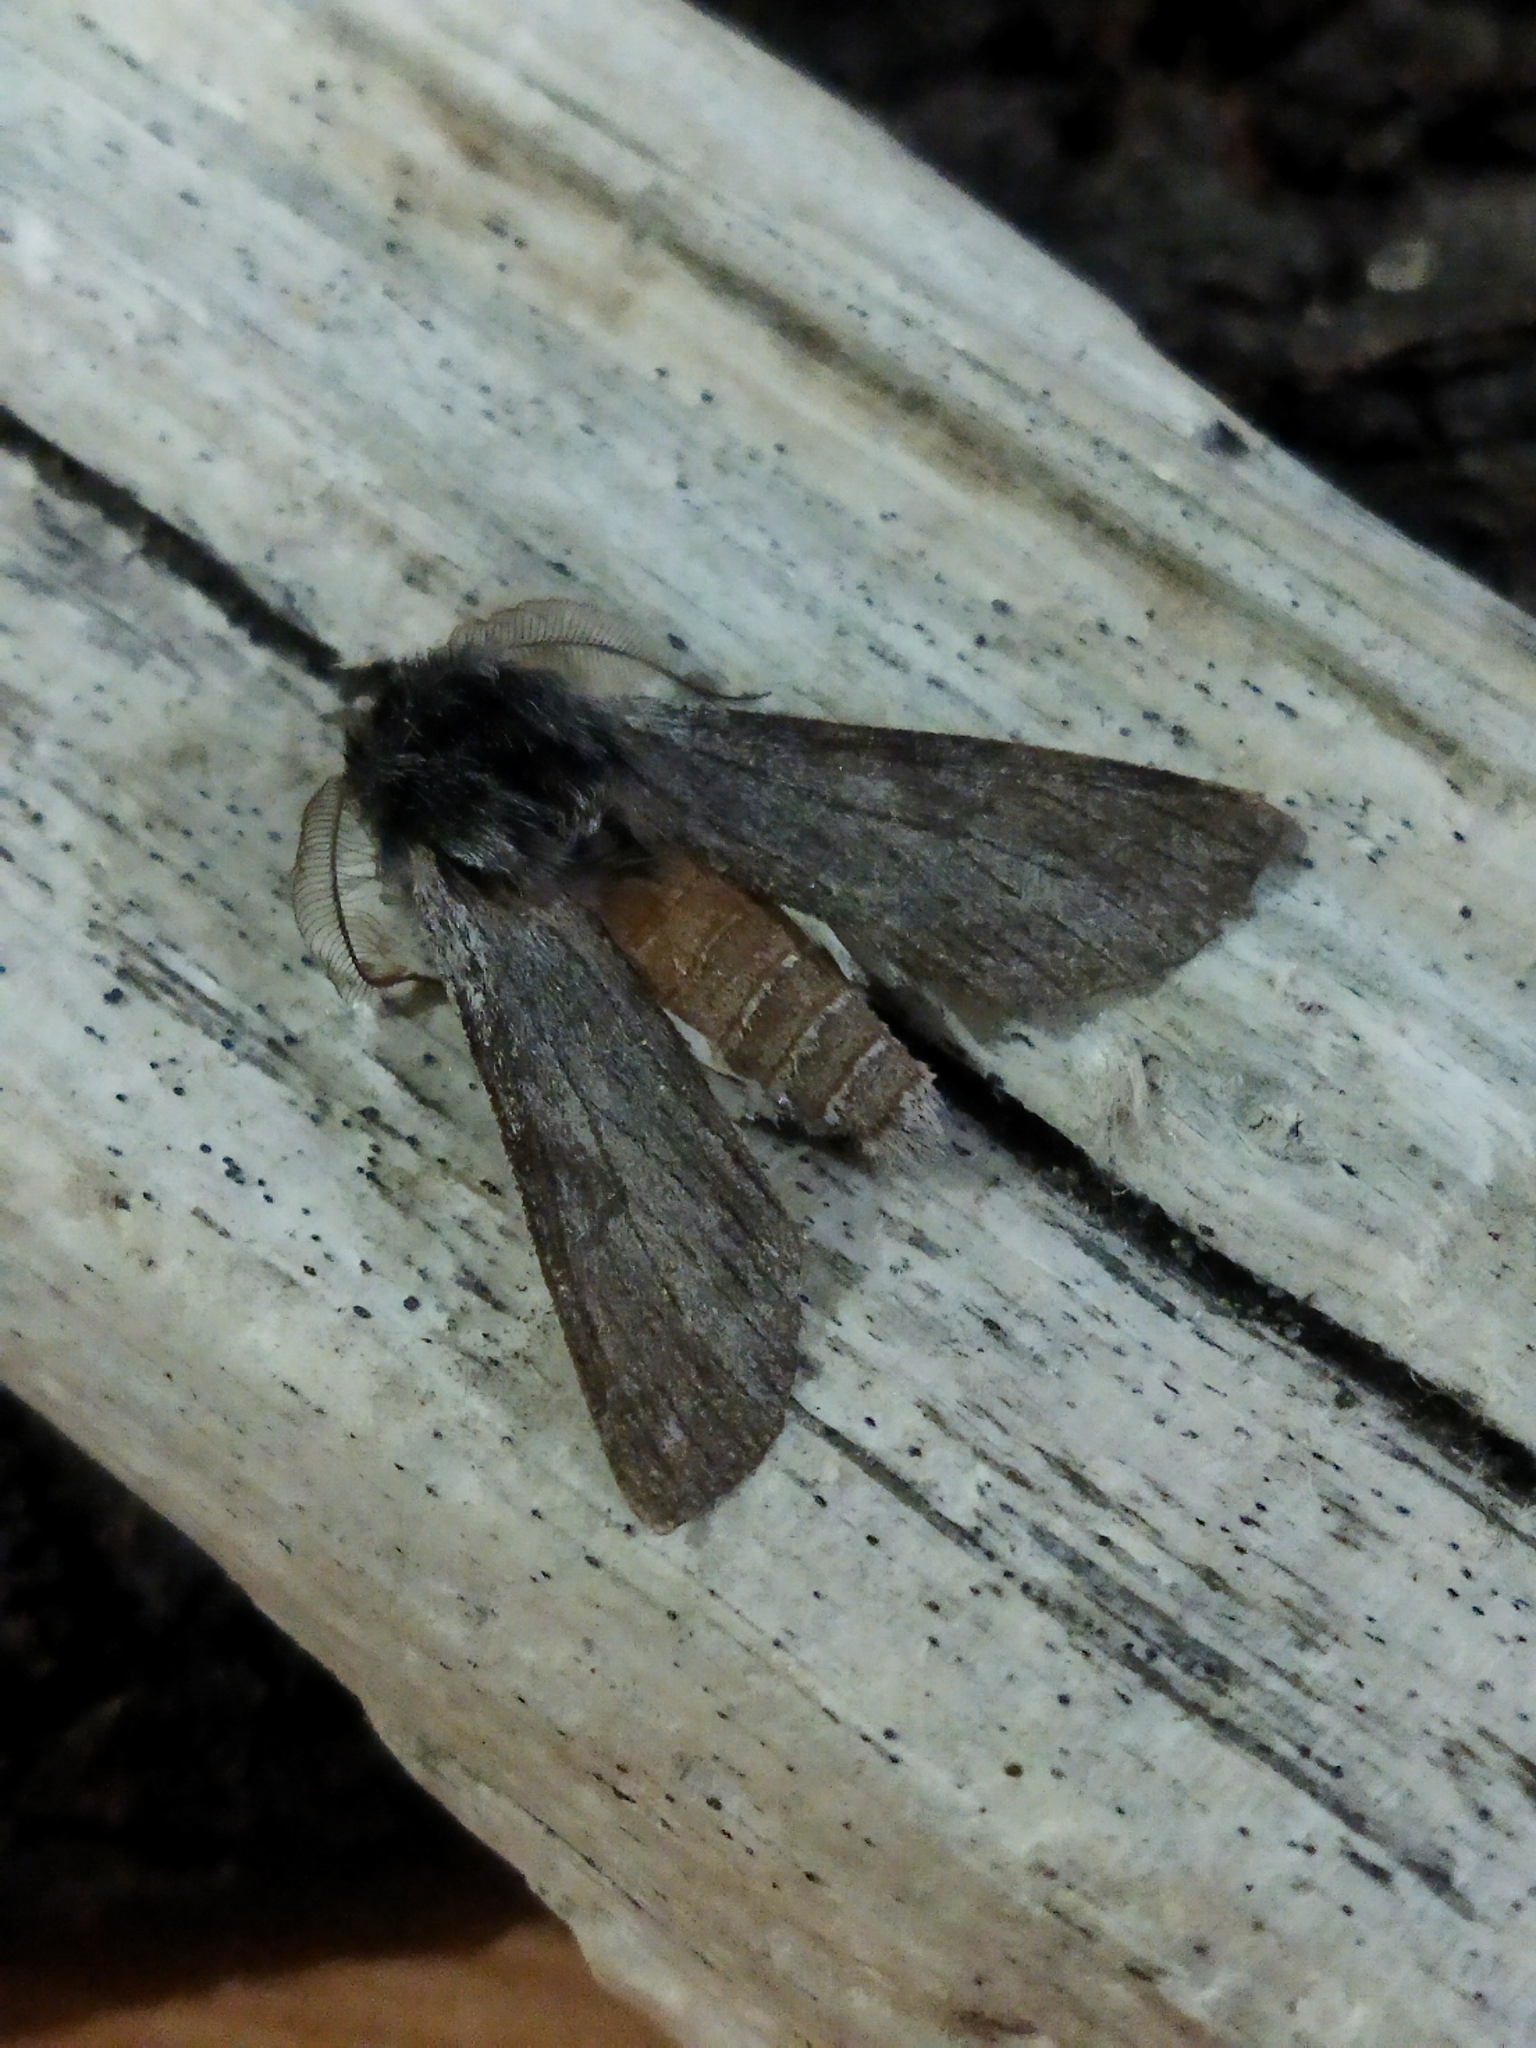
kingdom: Animalia
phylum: Arthropoda
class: Insecta
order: Lepidoptera
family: Notodontidae
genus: Dicranura
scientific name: Dicranura ulmi
